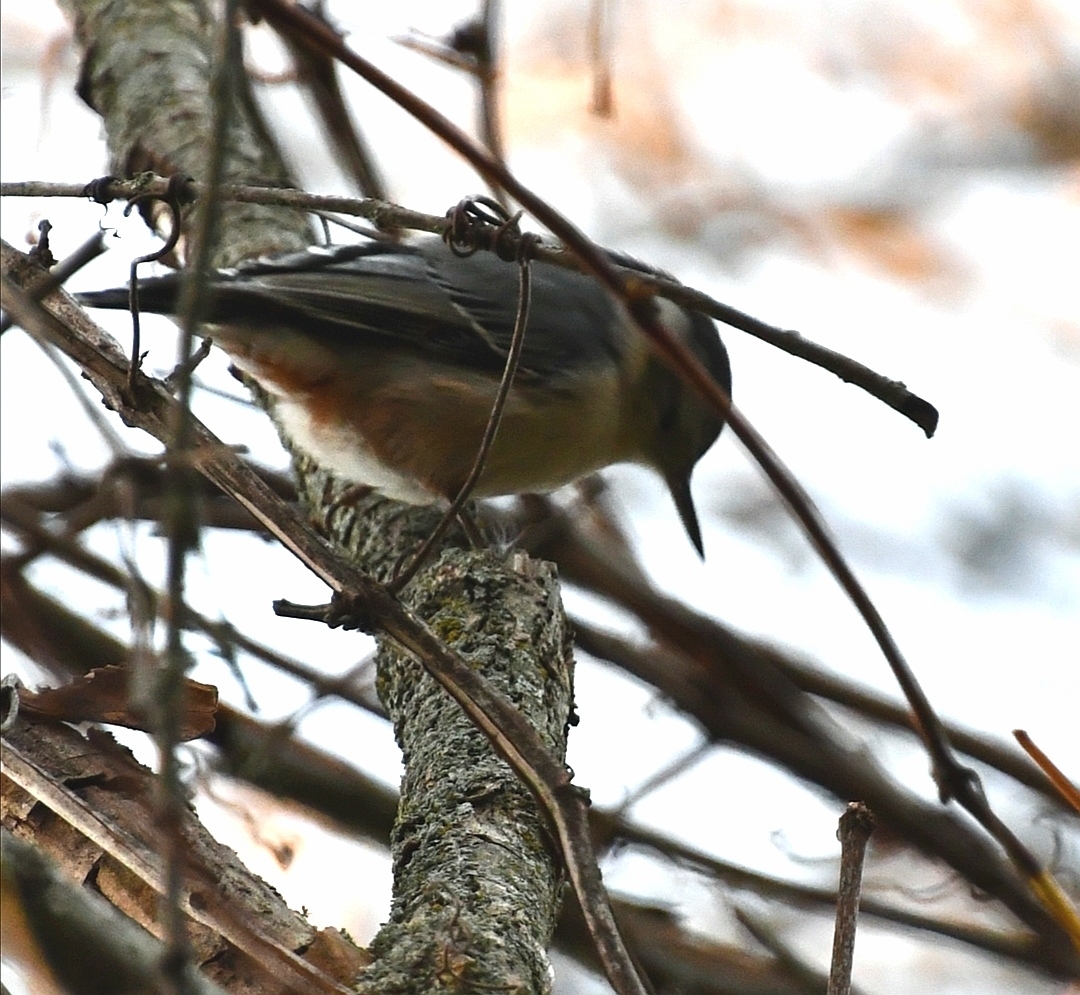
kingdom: Animalia
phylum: Chordata
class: Aves
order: Passeriformes
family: Sittidae
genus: Sitta
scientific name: Sitta carolinensis
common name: White-breasted nuthatch
